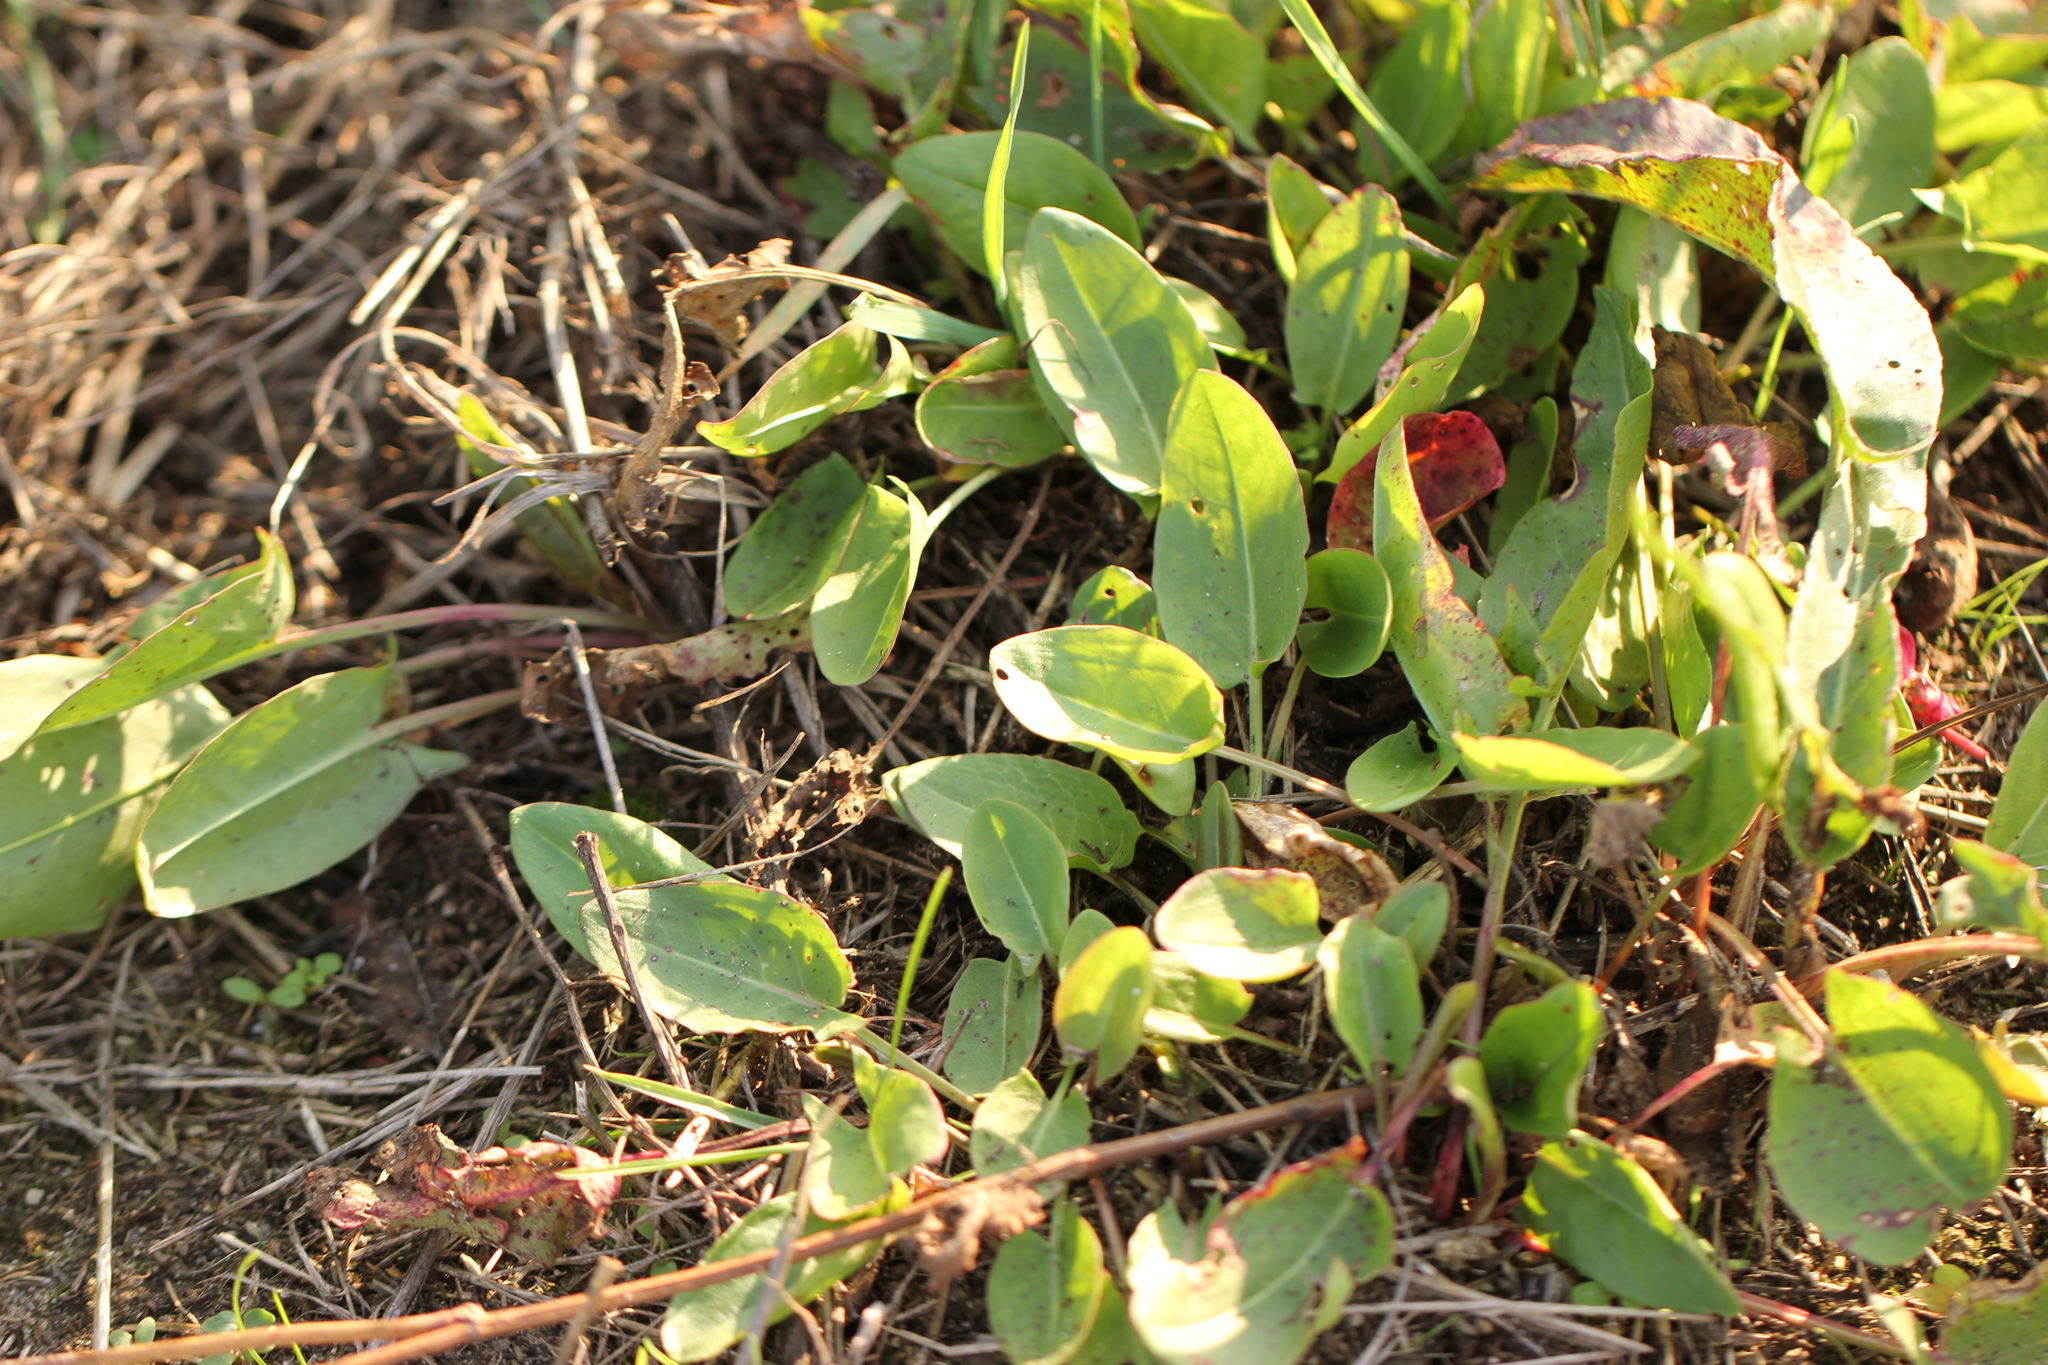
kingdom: Plantae
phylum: Tracheophyta
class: Magnoliopsida
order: Caryophyllales
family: Polygonaceae
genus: Rumex
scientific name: Rumex acetosa
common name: Garden sorrel
